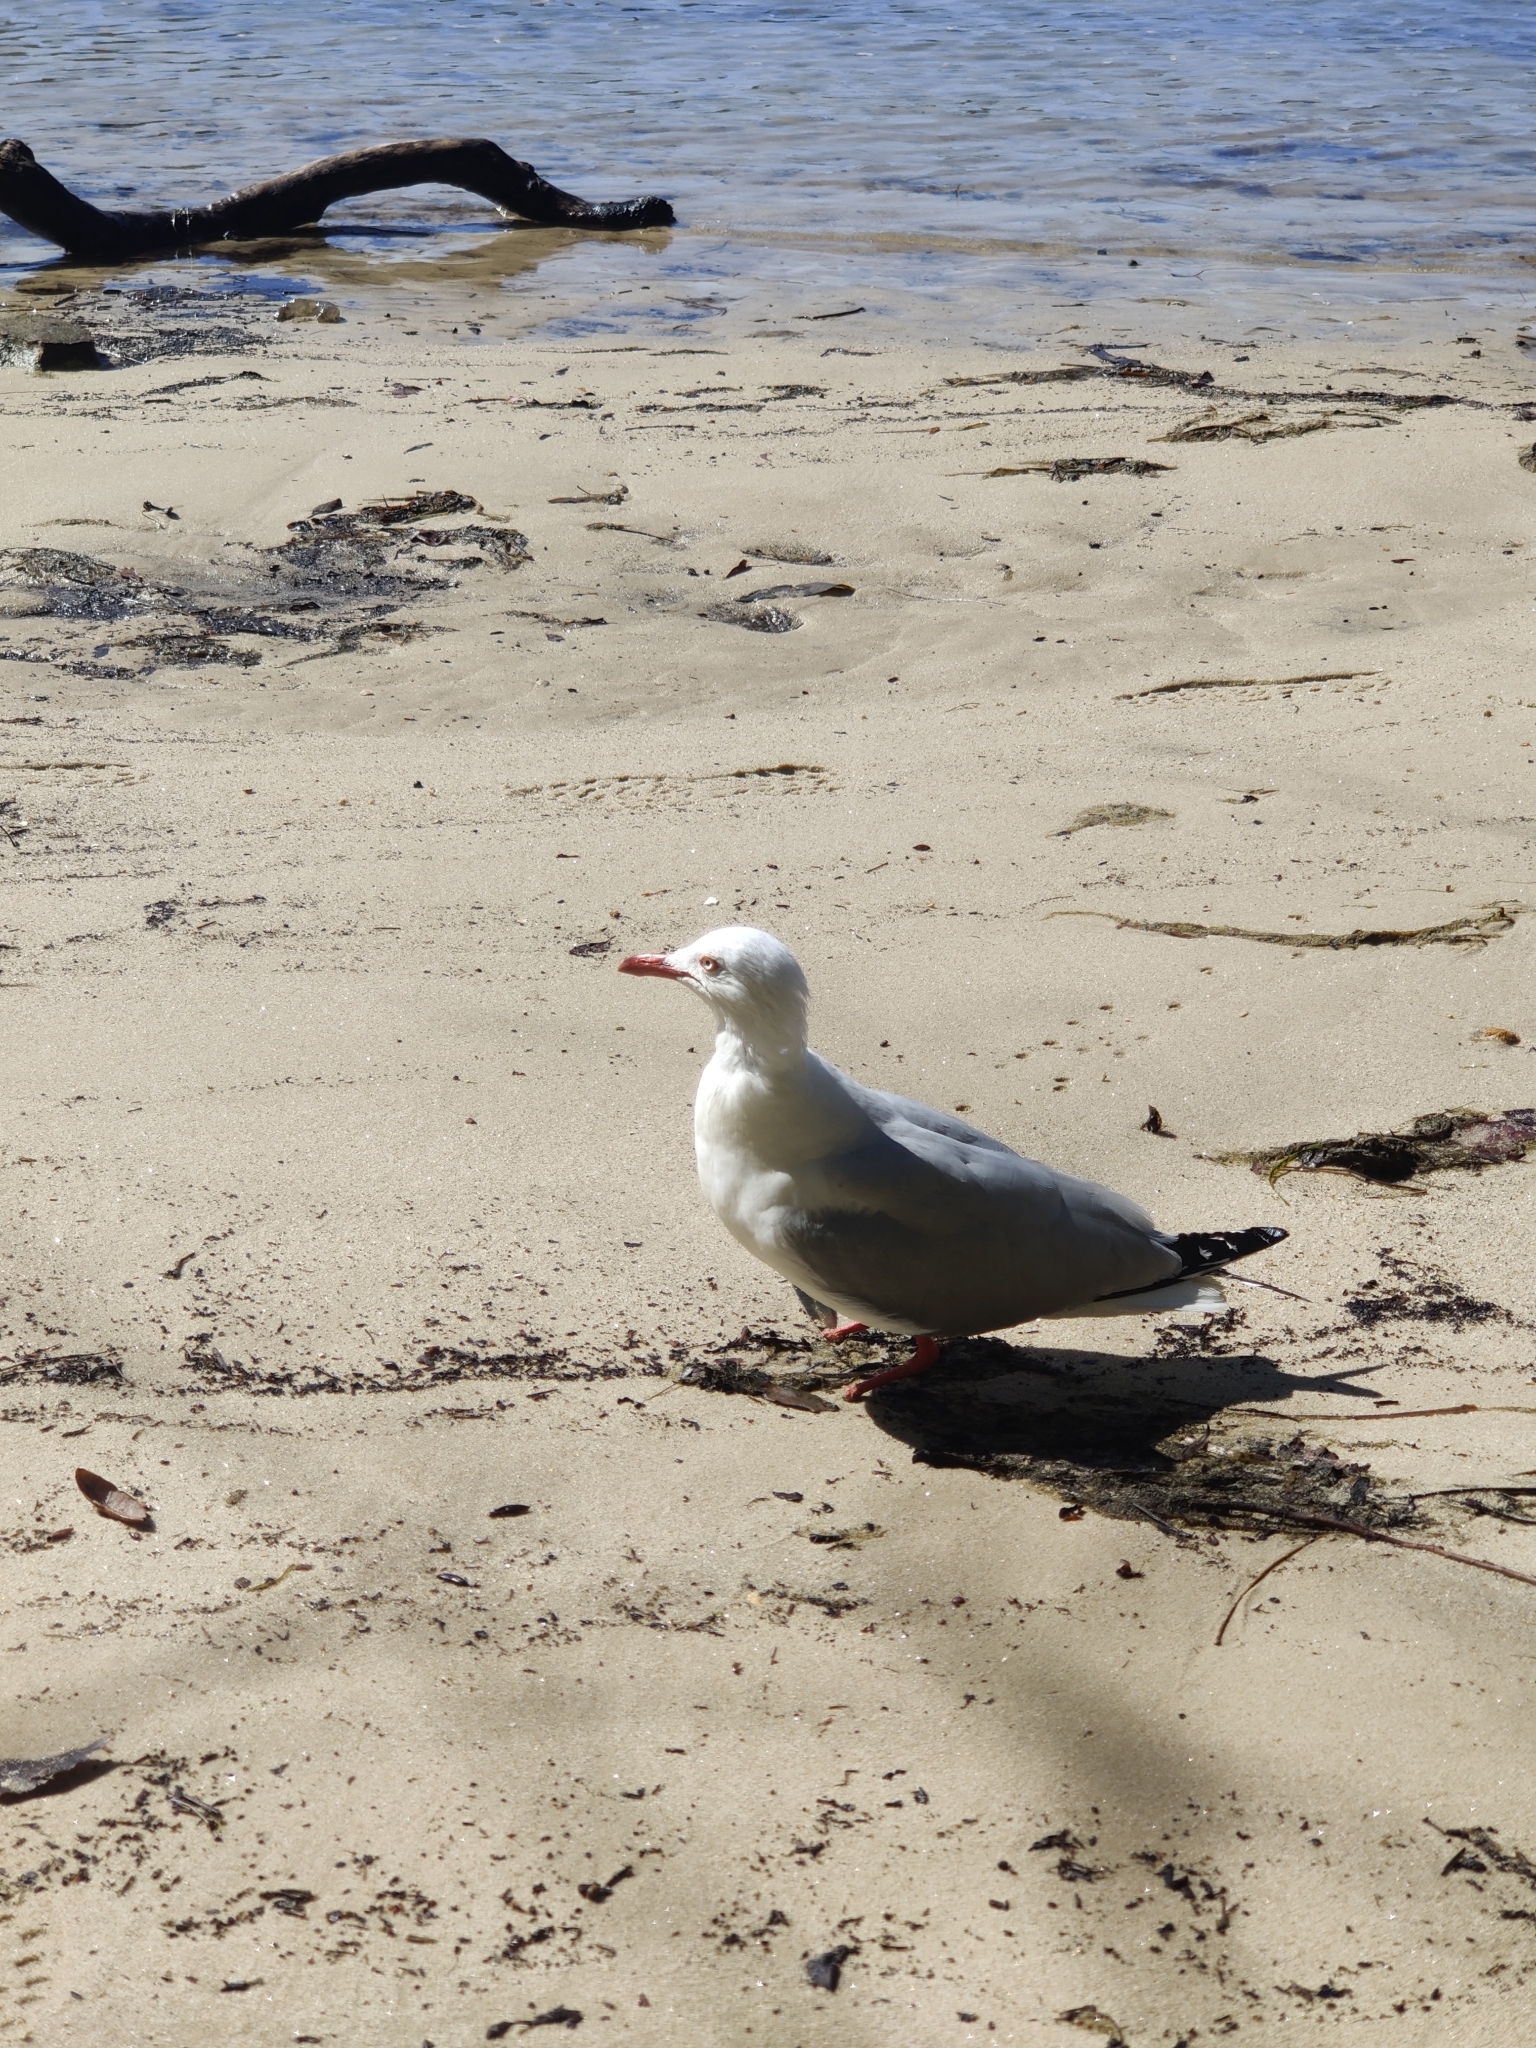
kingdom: Animalia
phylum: Chordata
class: Aves
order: Charadriiformes
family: Laridae
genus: Chroicocephalus
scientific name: Chroicocephalus novaehollandiae
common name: Silver gull
